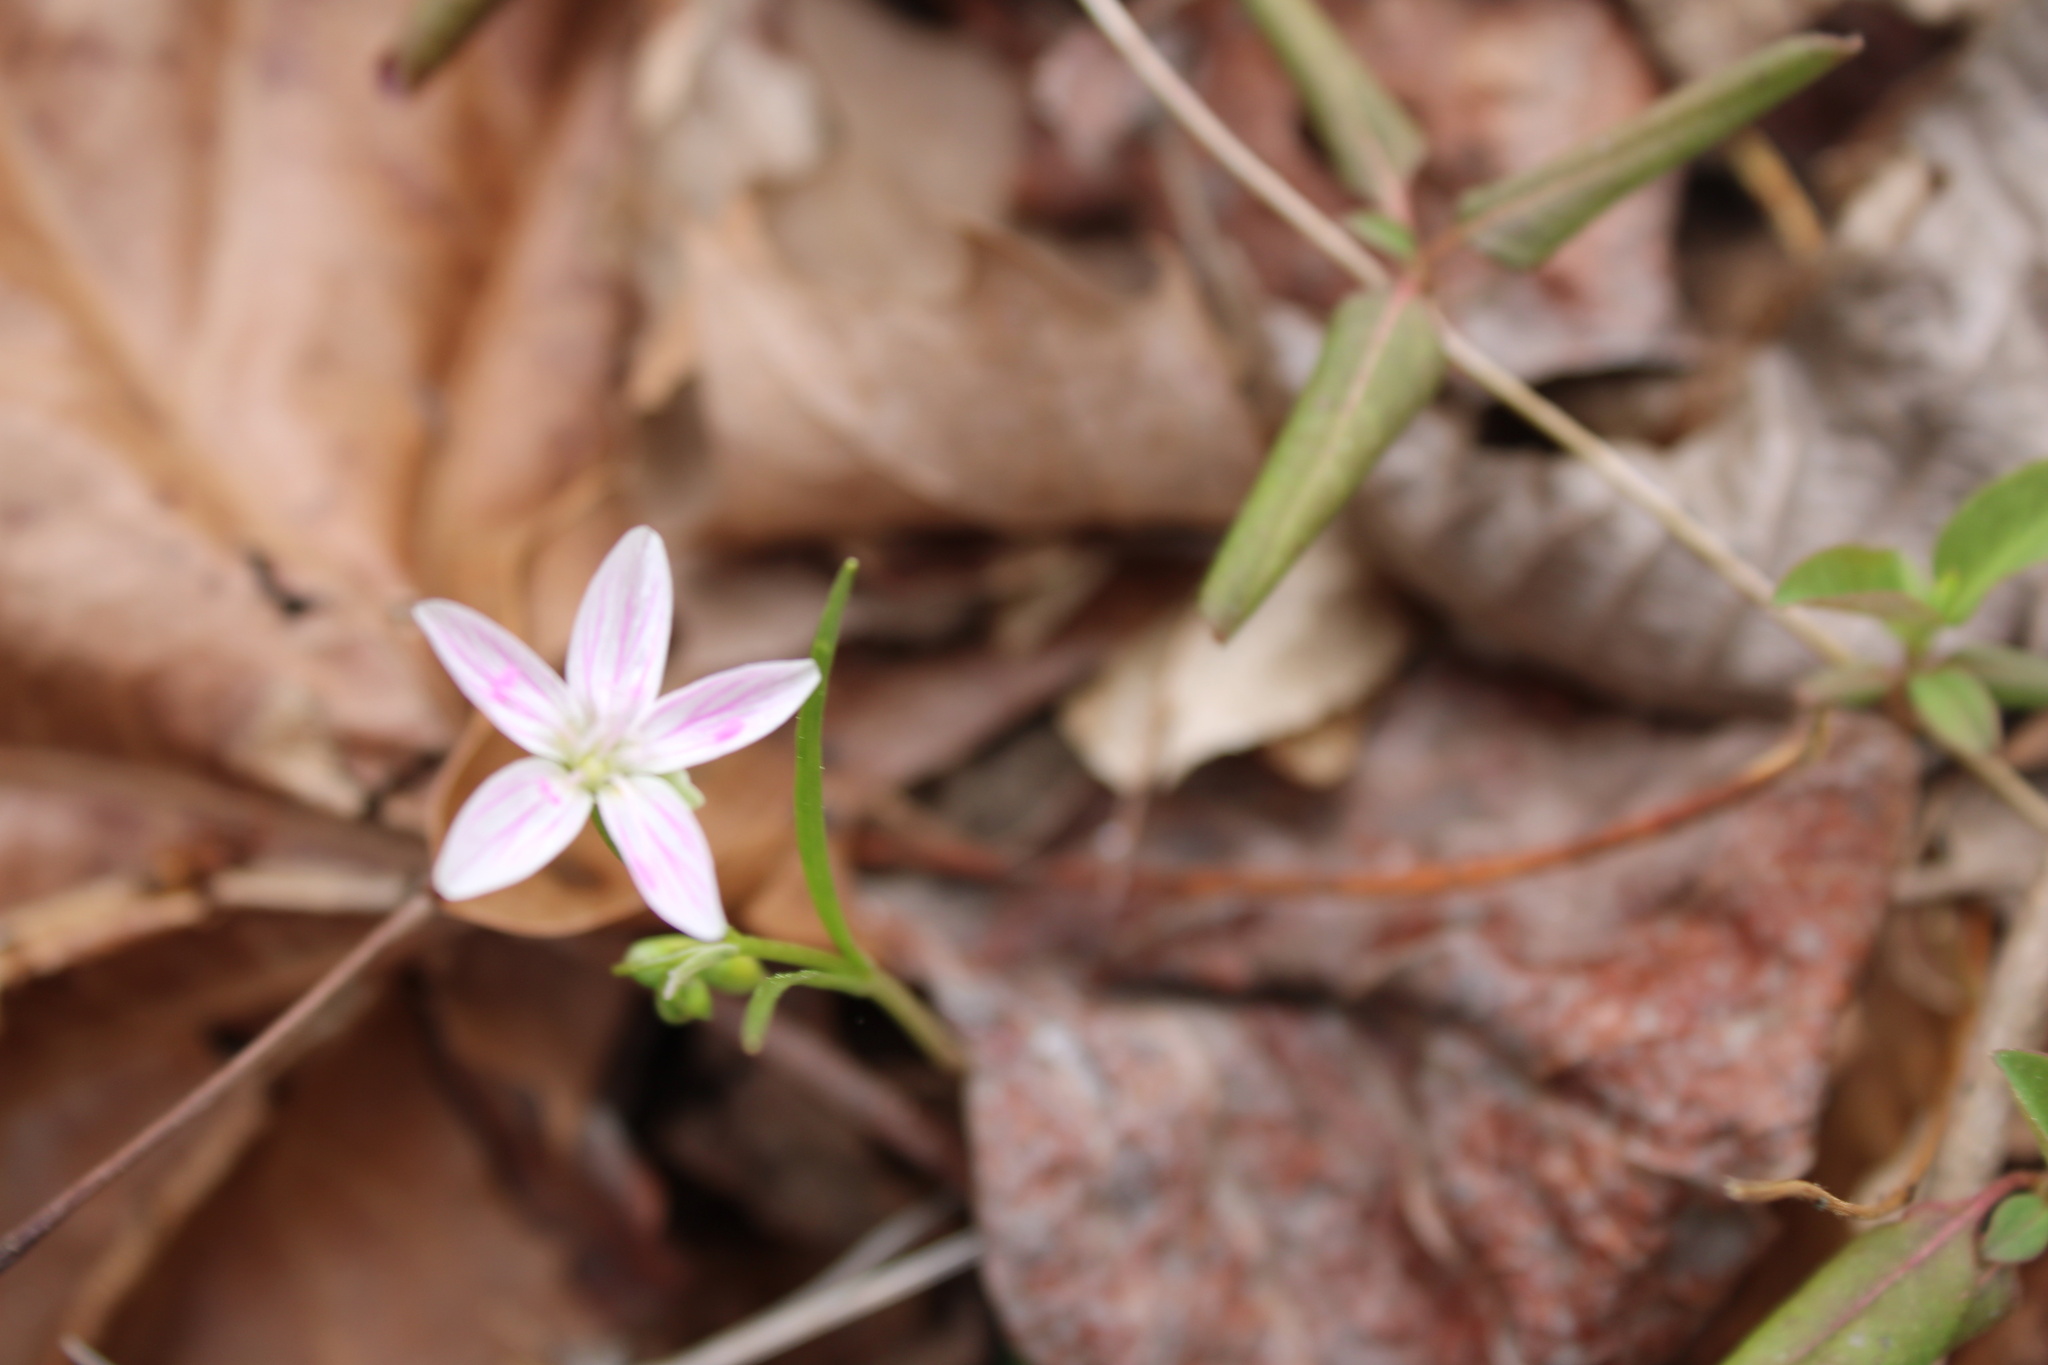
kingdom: Plantae
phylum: Tracheophyta
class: Magnoliopsida
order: Caryophyllales
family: Montiaceae
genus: Claytonia
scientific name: Claytonia virginica
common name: Virginia springbeauty
